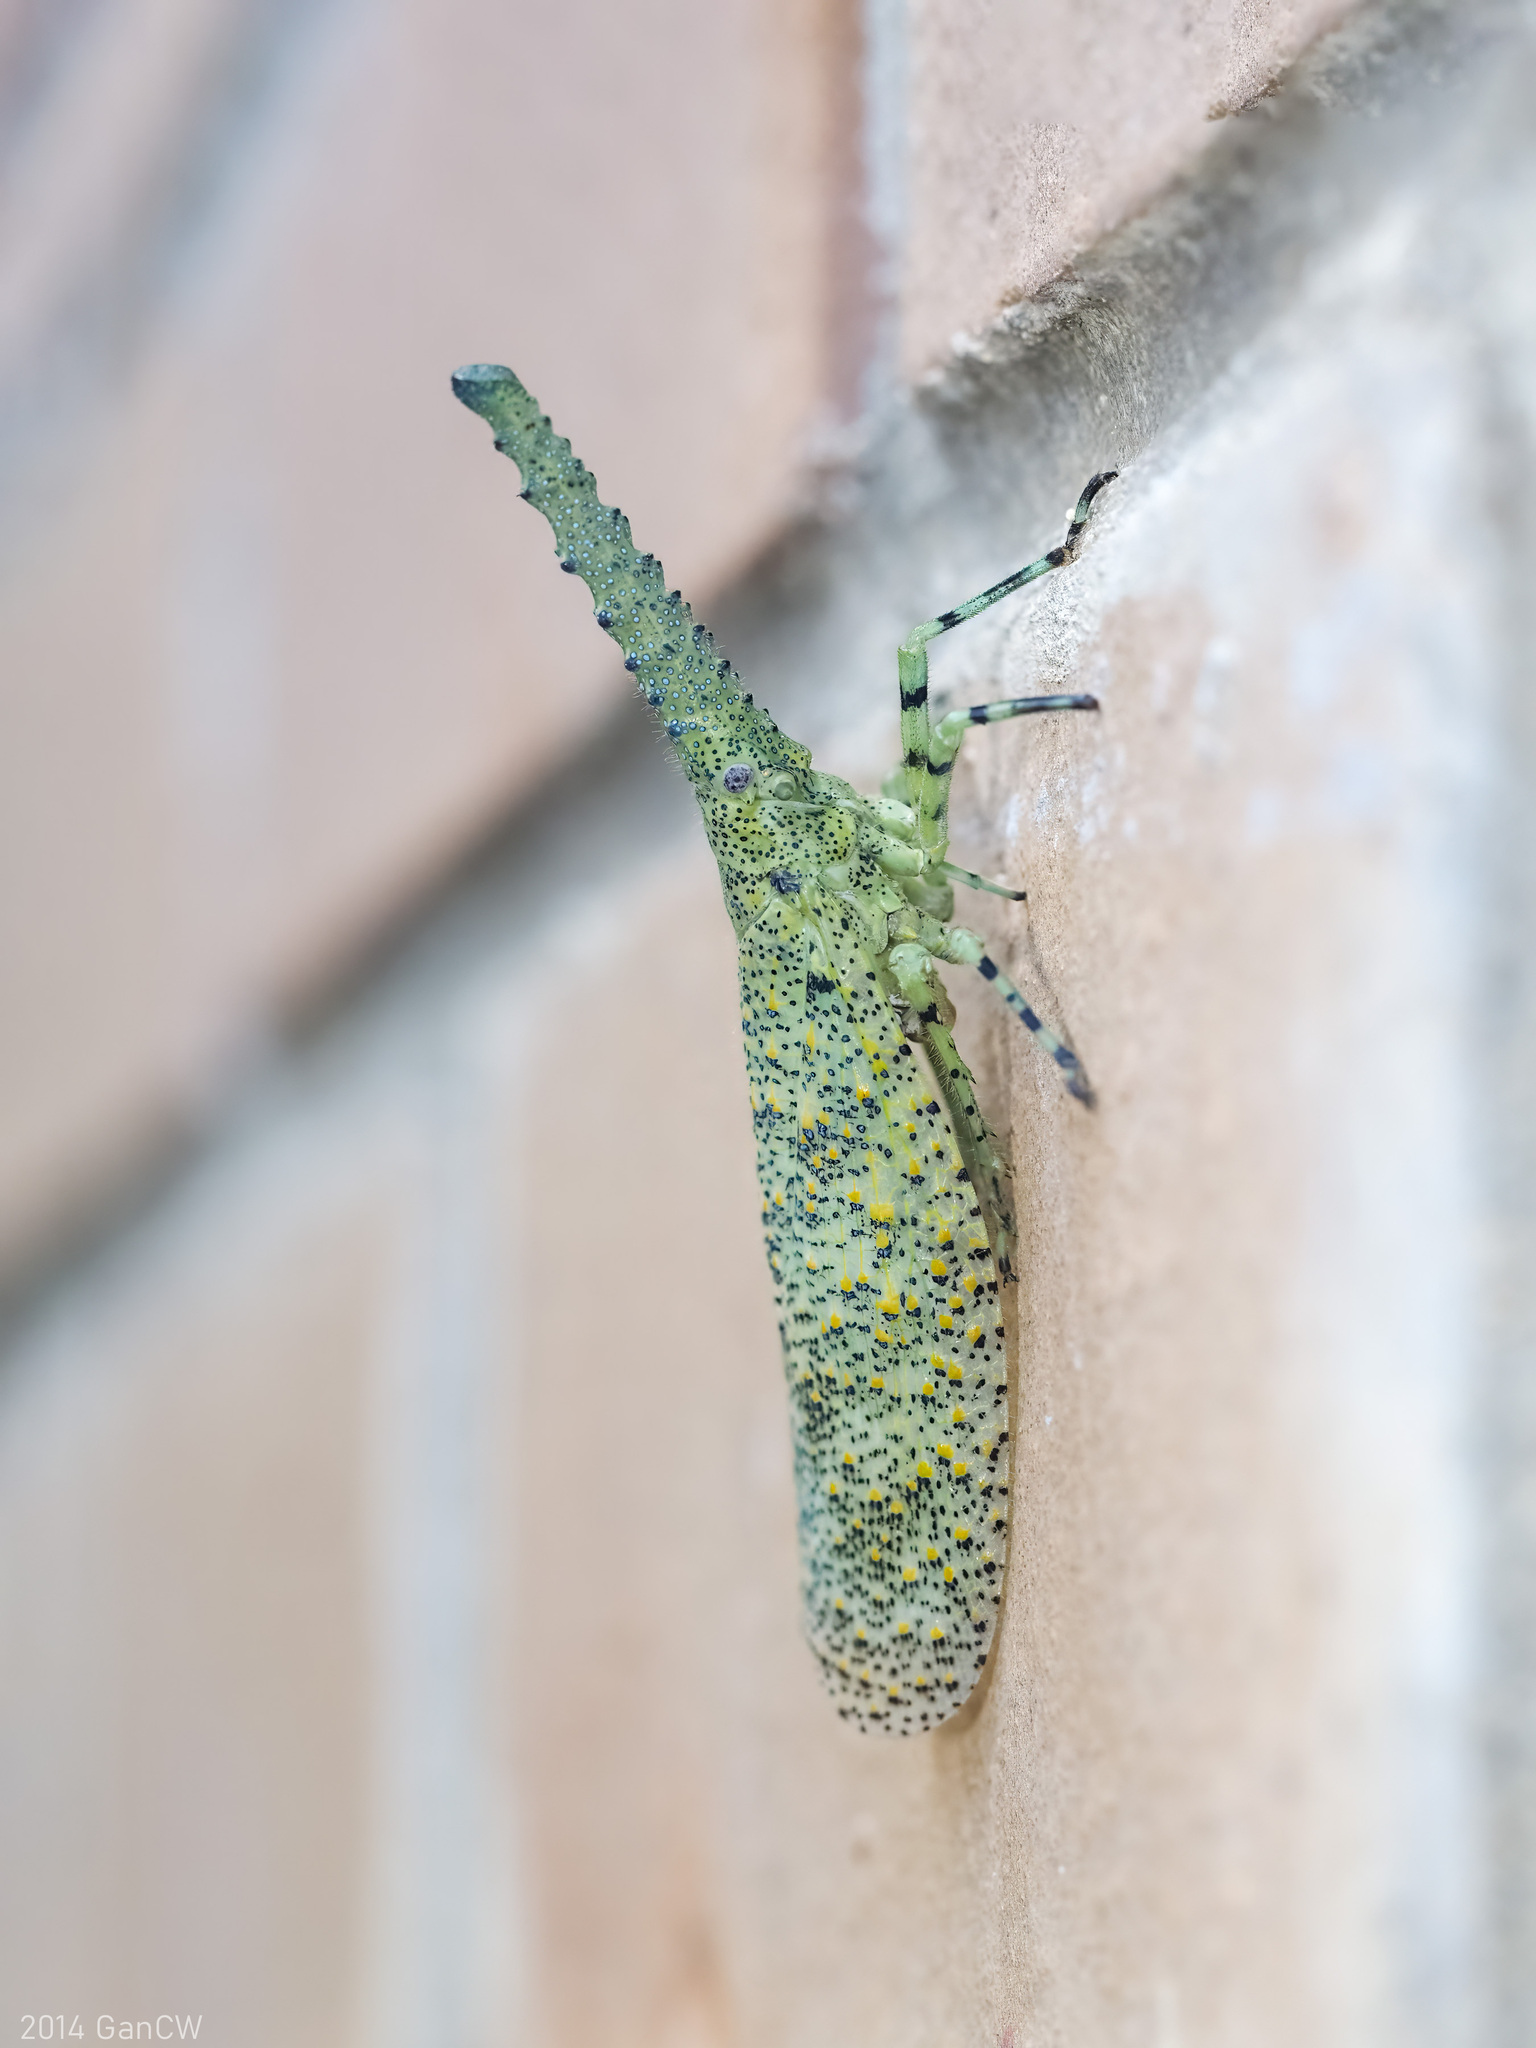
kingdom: Animalia
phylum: Arthropoda
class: Insecta
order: Hemiptera
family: Fulgoridae
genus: Zanna
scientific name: Zanna nobilis
